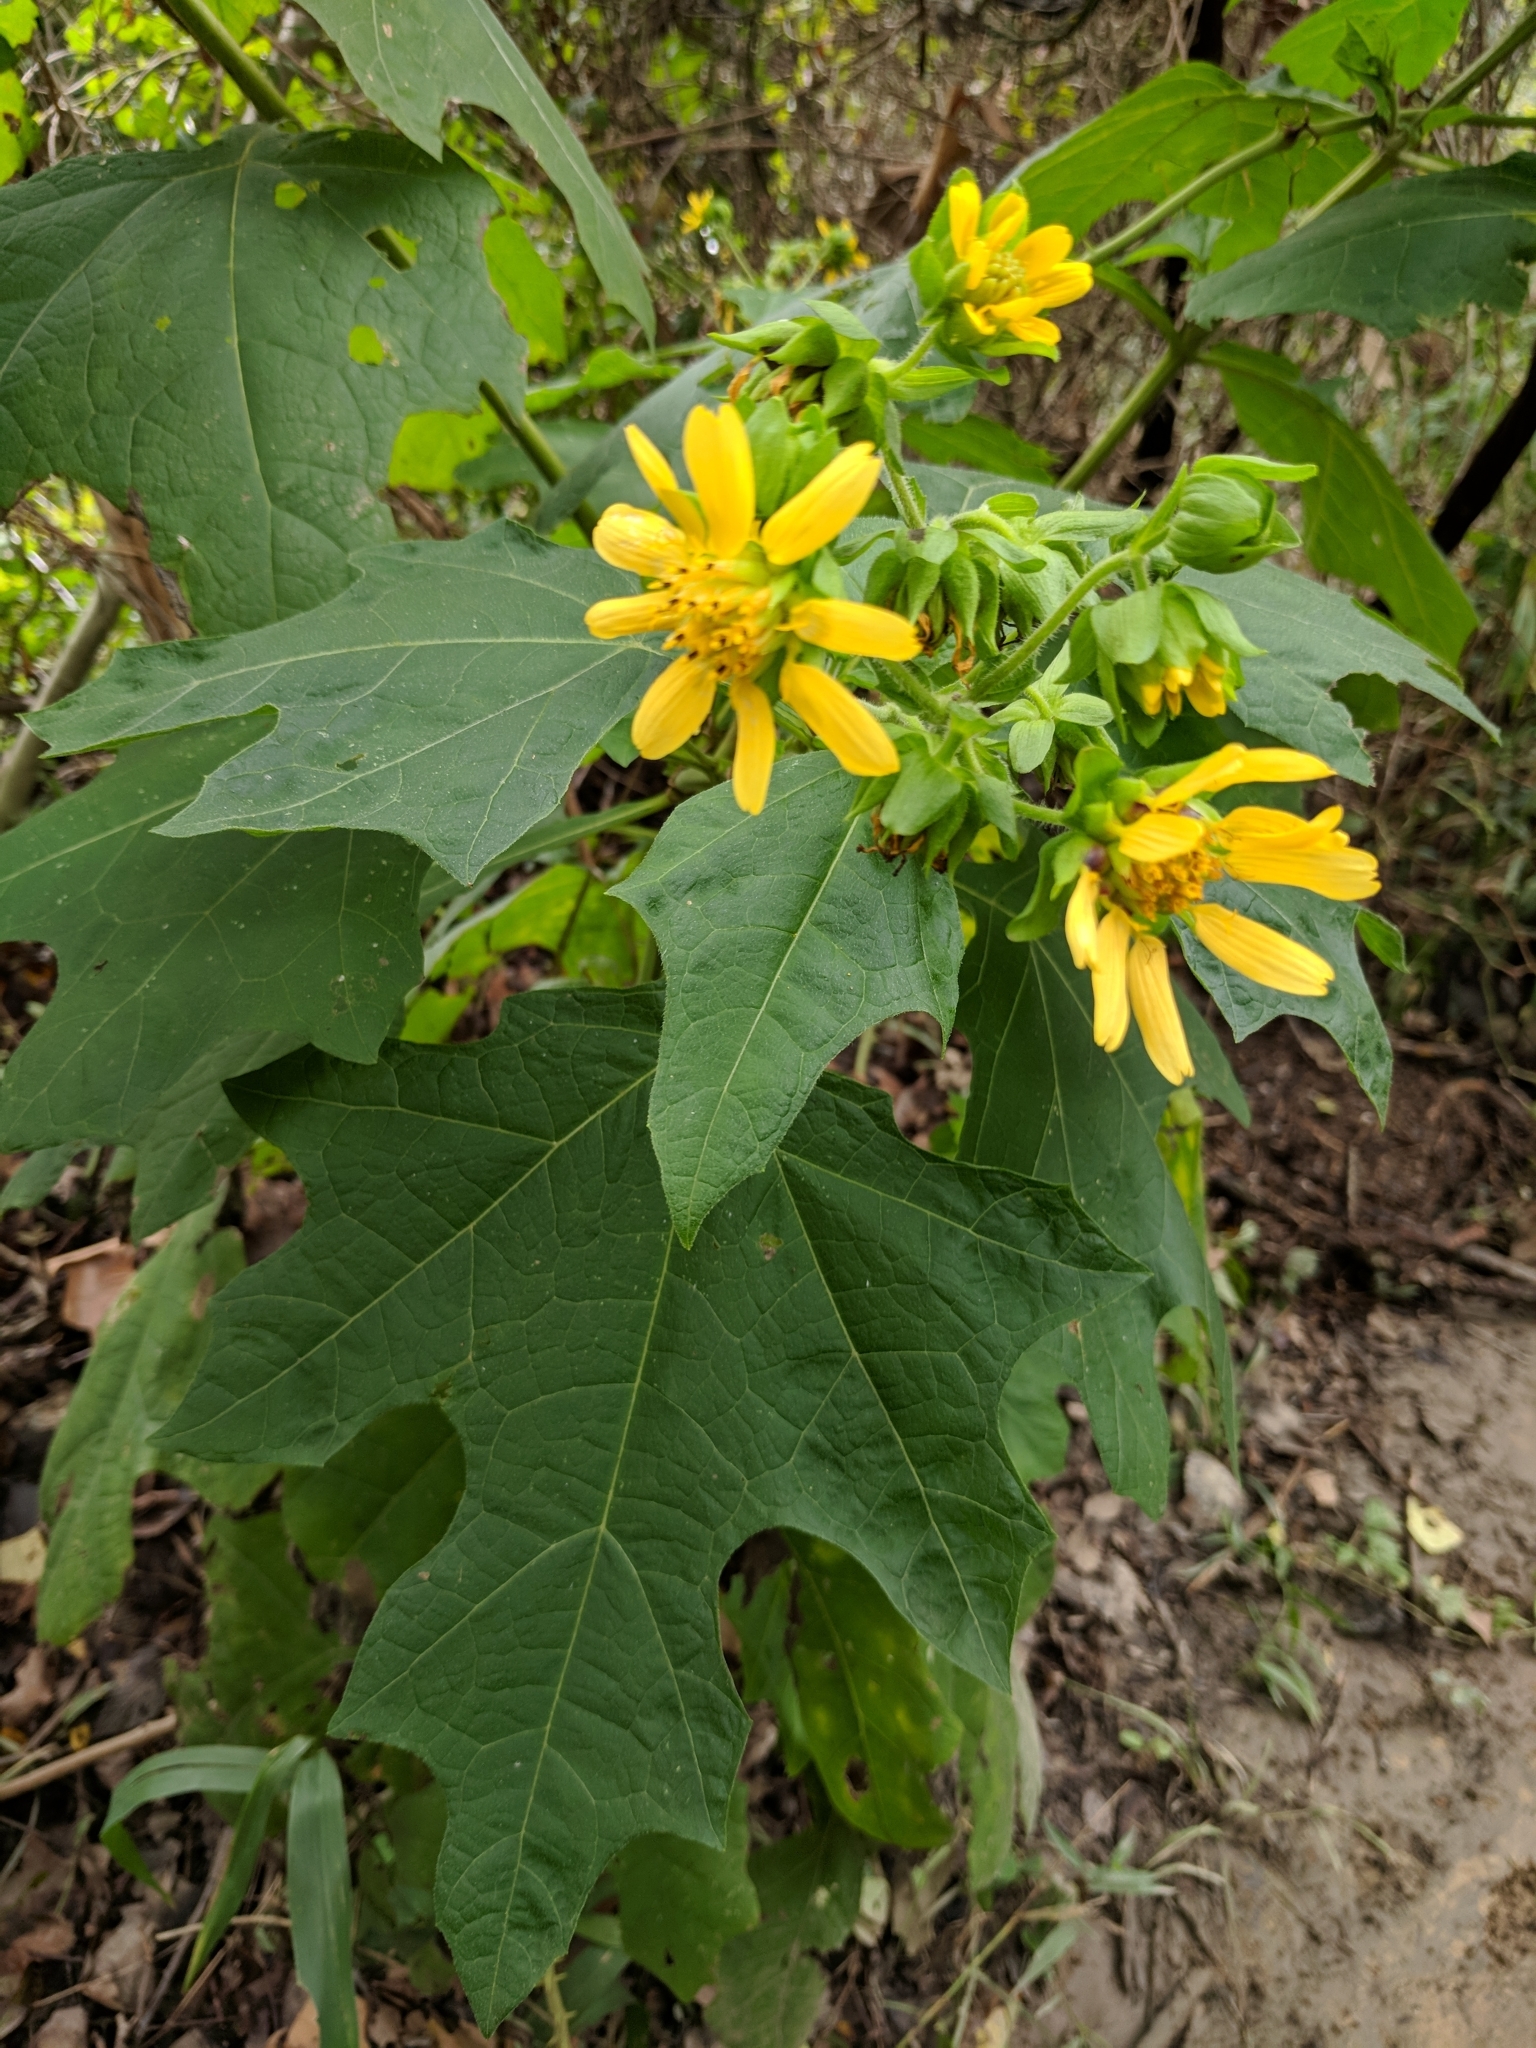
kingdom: Plantae
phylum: Tracheophyta
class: Magnoliopsida
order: Asterales
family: Asteraceae
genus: Smallanthus
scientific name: Smallanthus uvedalia
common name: Bear's-foot
